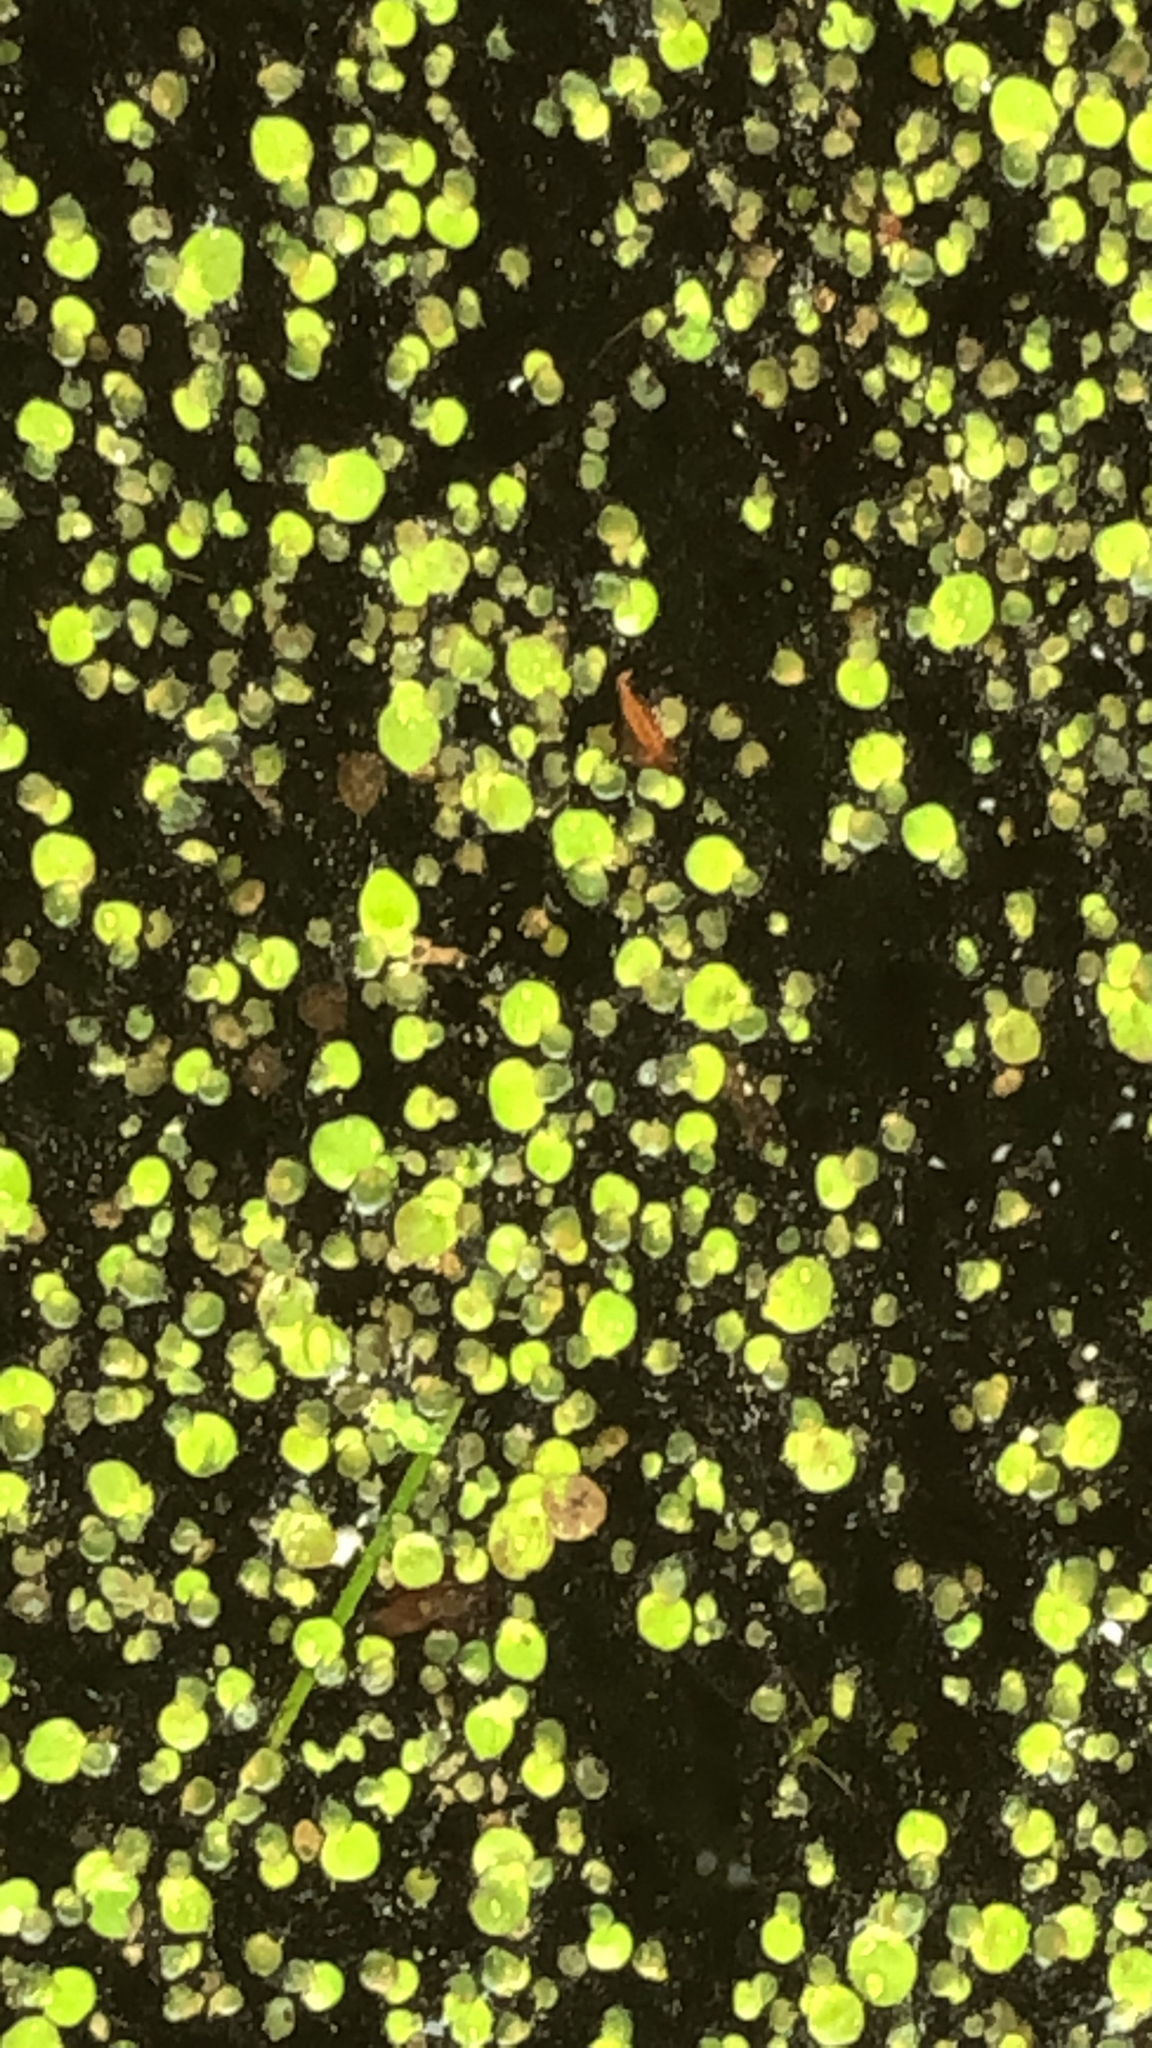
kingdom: Plantae
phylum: Tracheophyta
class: Liliopsida
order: Alismatales
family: Araceae
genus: Lemna
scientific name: Lemna minor
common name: Common duckweed
